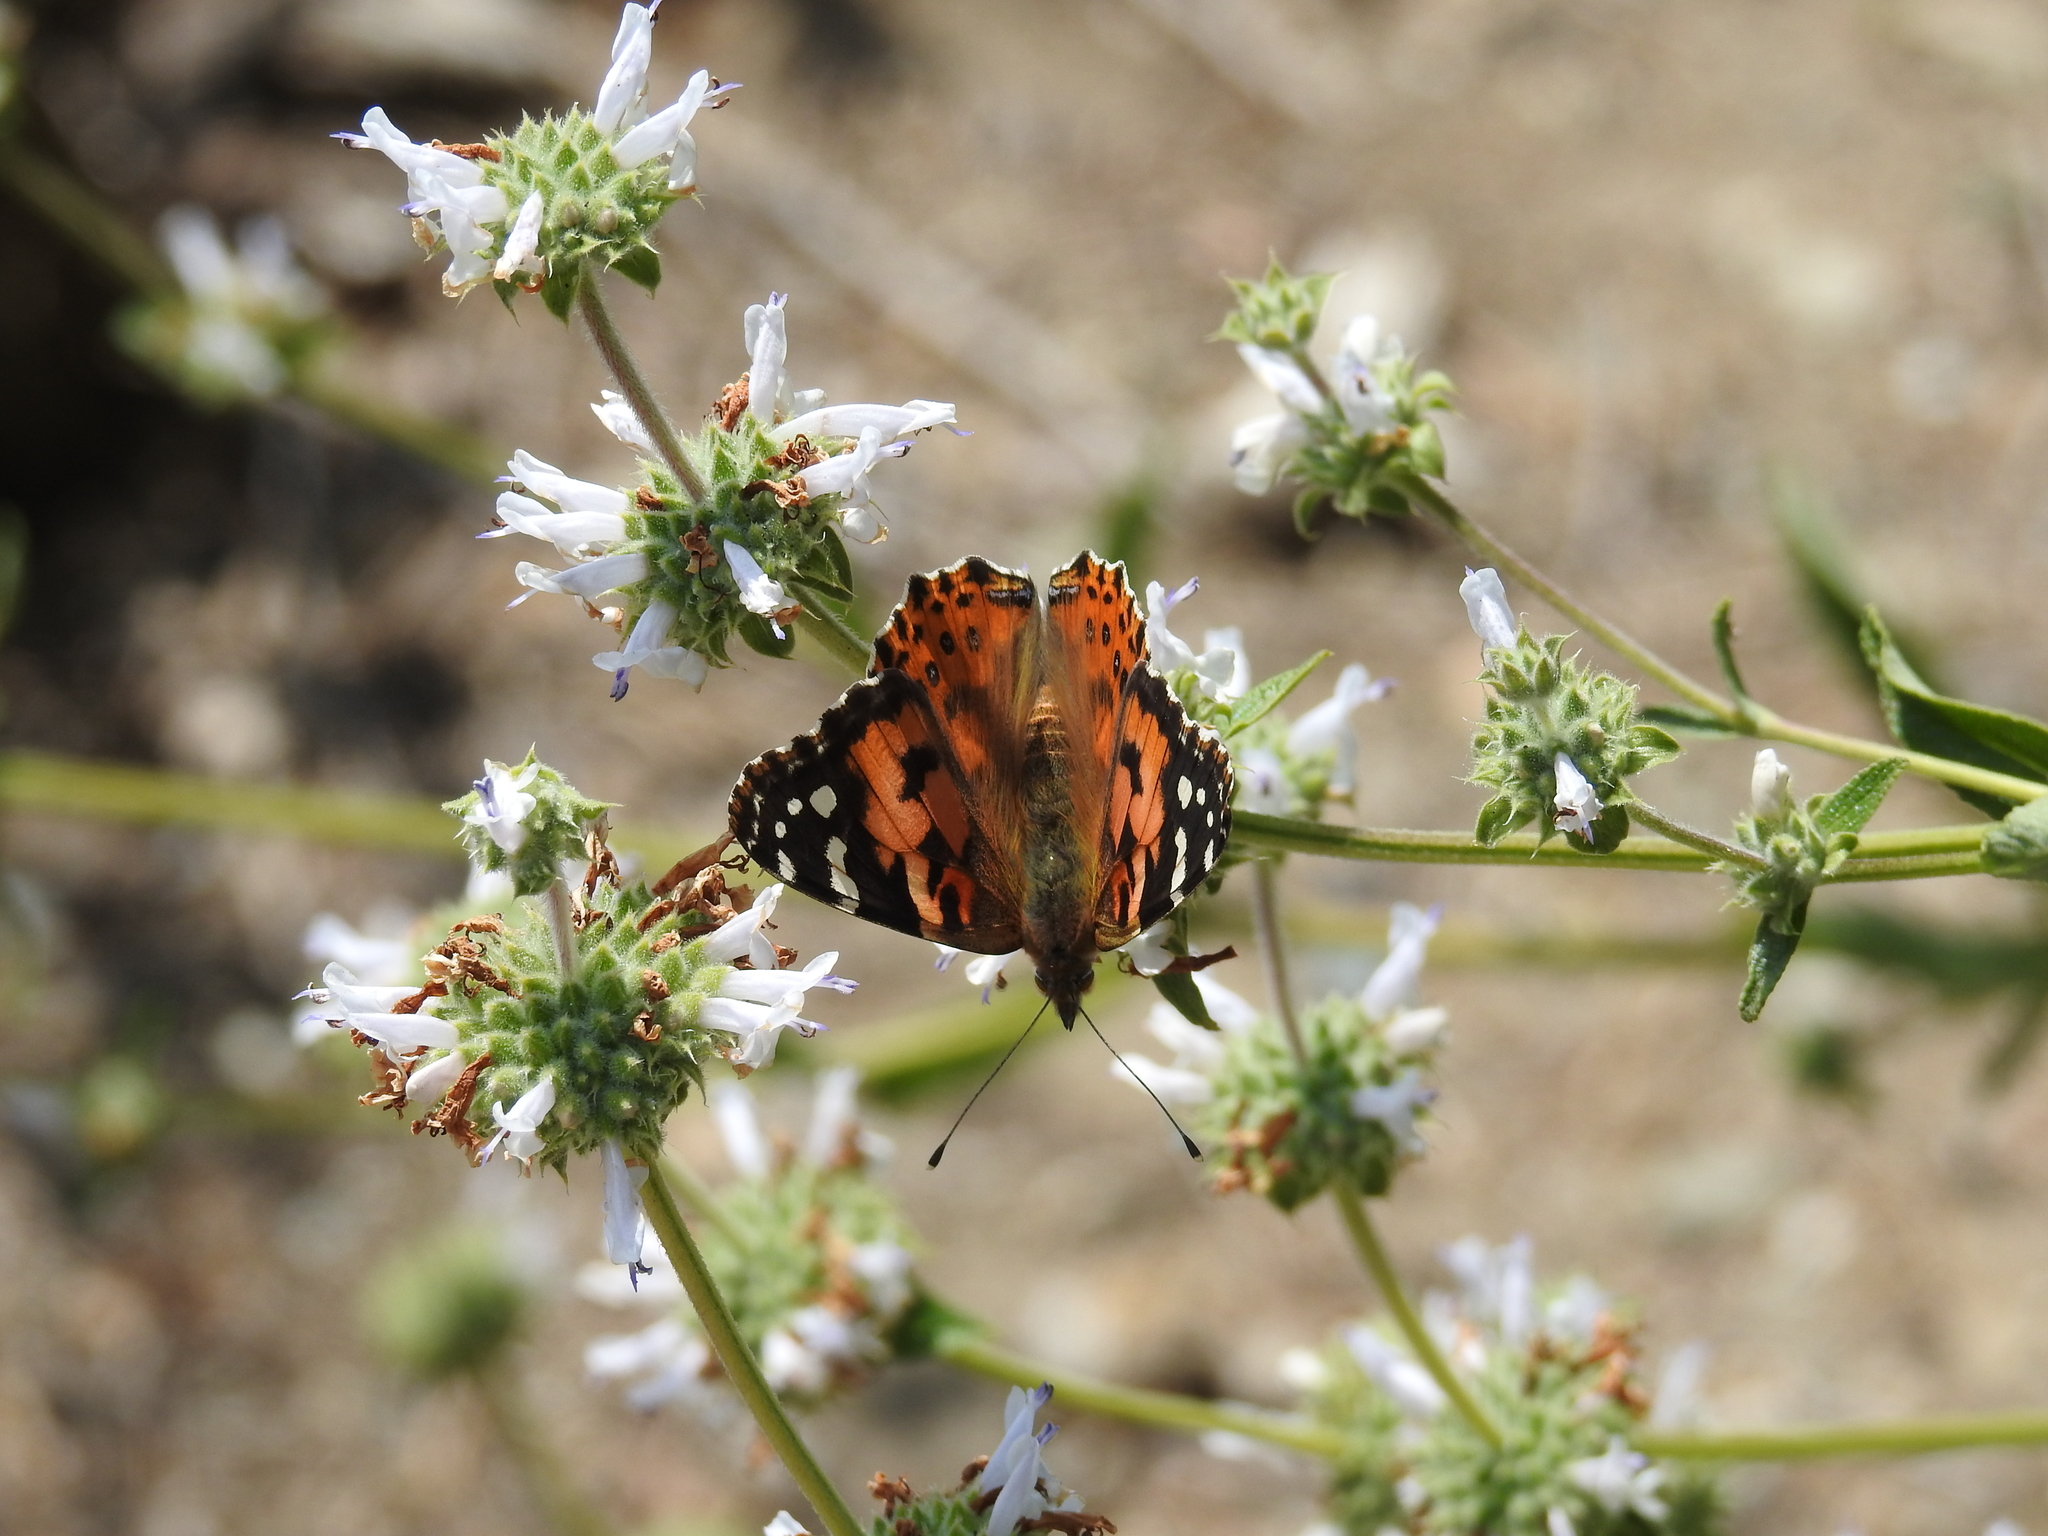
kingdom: Animalia
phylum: Arthropoda
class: Insecta
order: Lepidoptera
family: Nymphalidae
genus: Vanessa
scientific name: Vanessa cardui
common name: Painted lady
